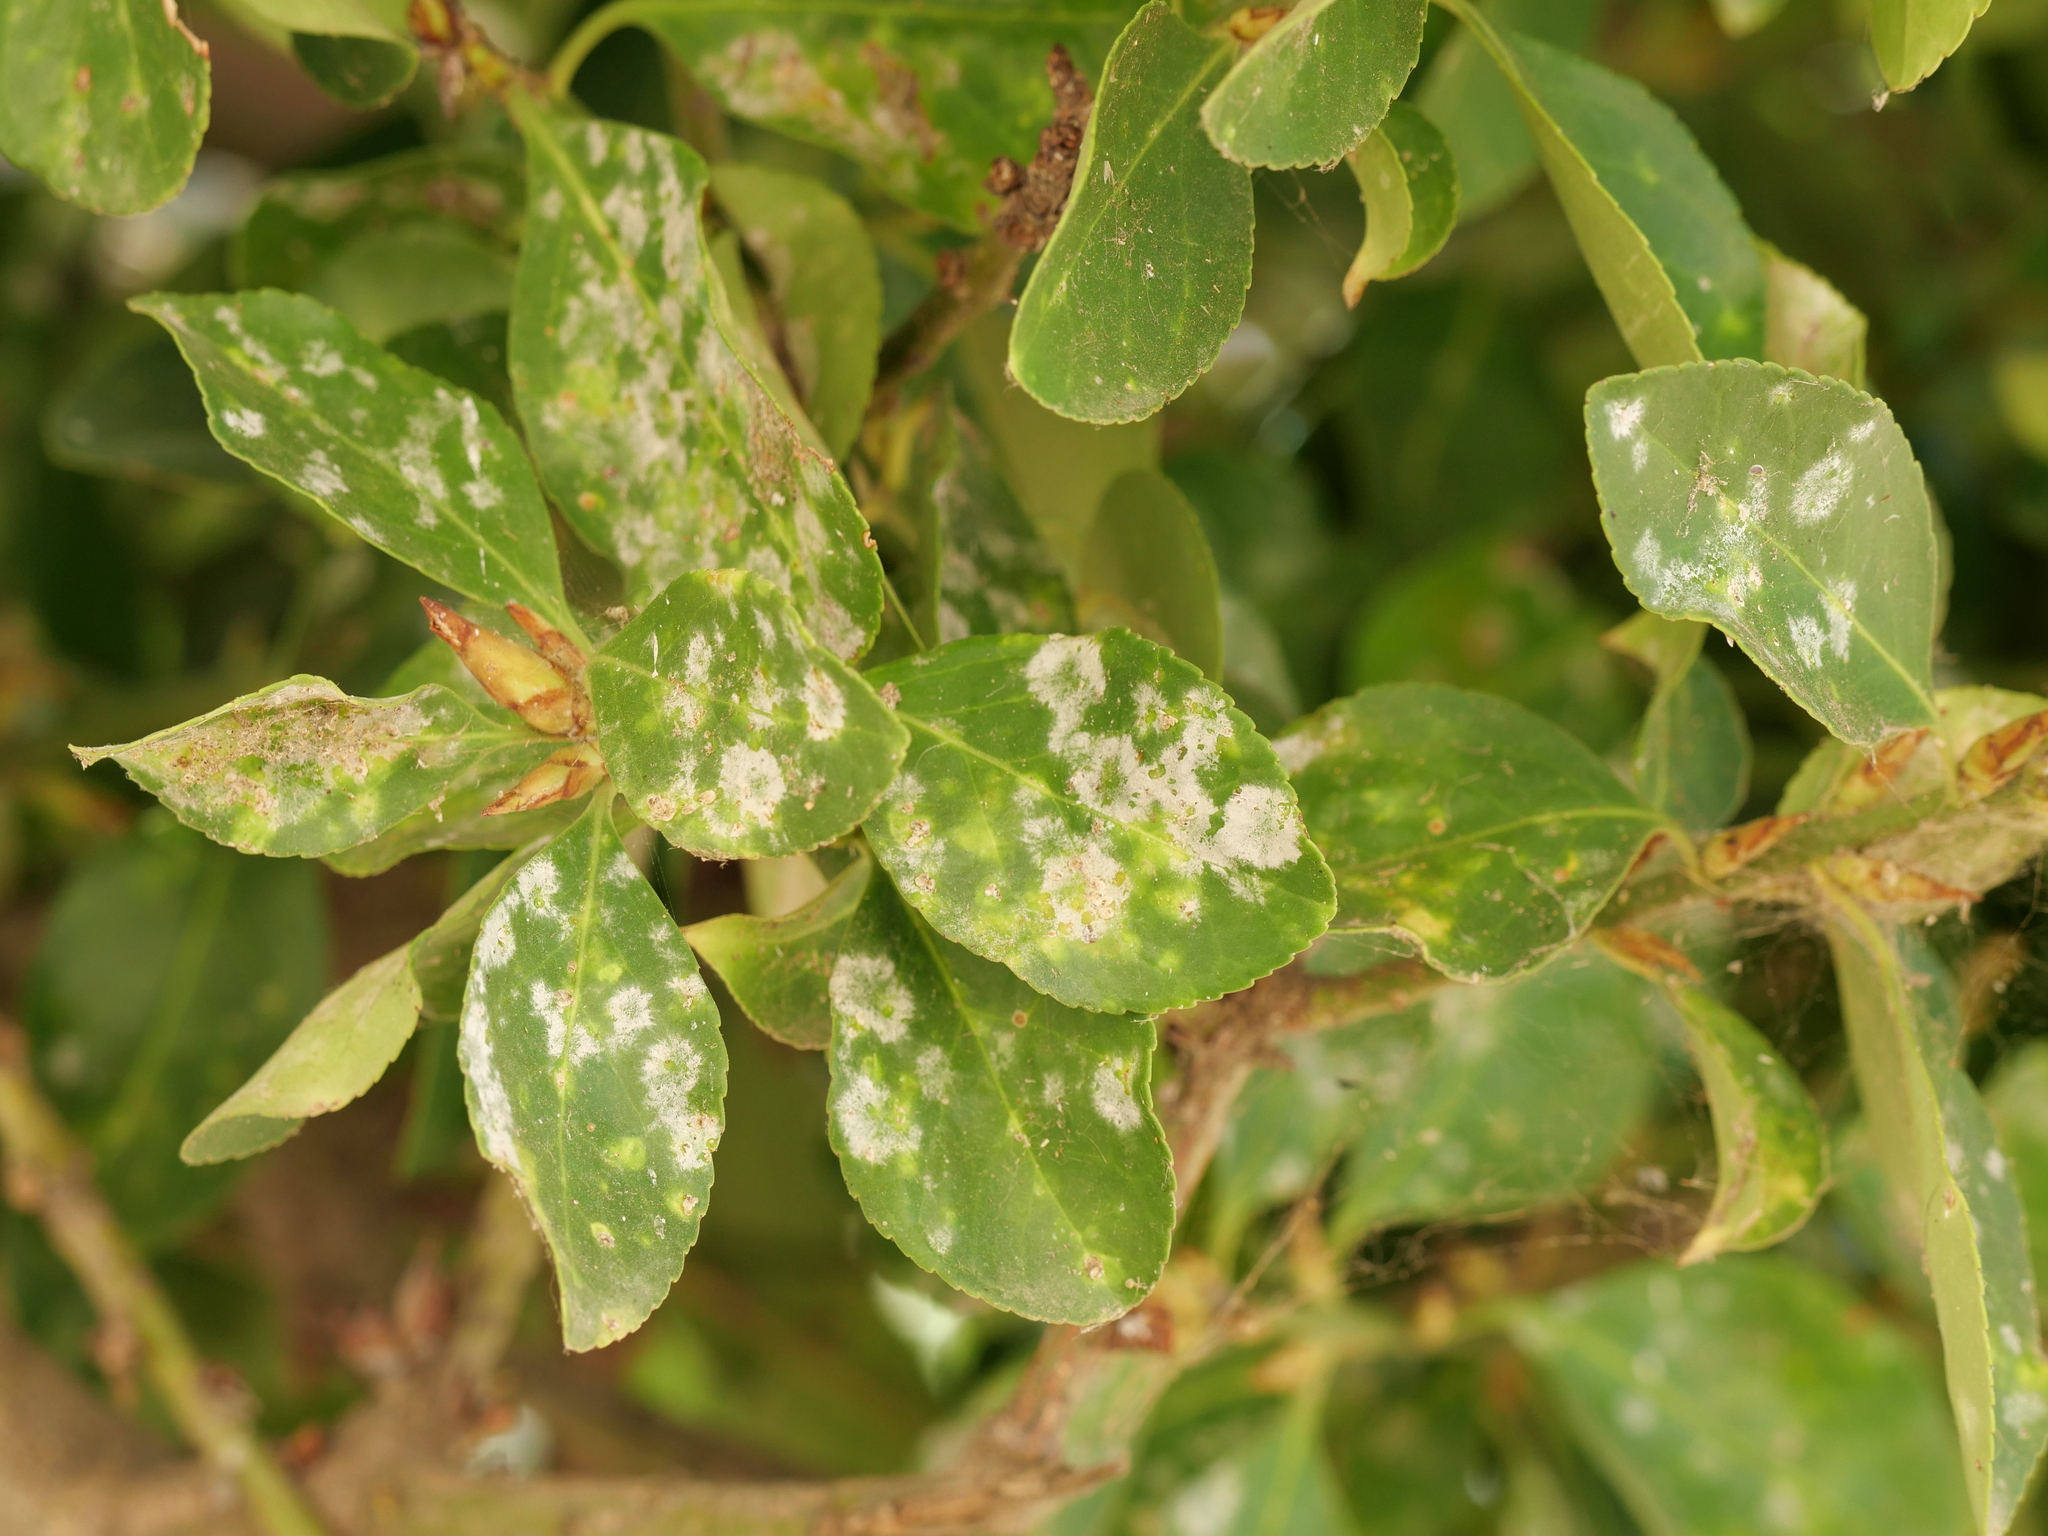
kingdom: Fungi
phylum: Ascomycota
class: Leotiomycetes
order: Helotiales
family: Erysiphaceae
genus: Erysiphe
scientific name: Erysiphe euonymicola
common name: Spindletree mildew
